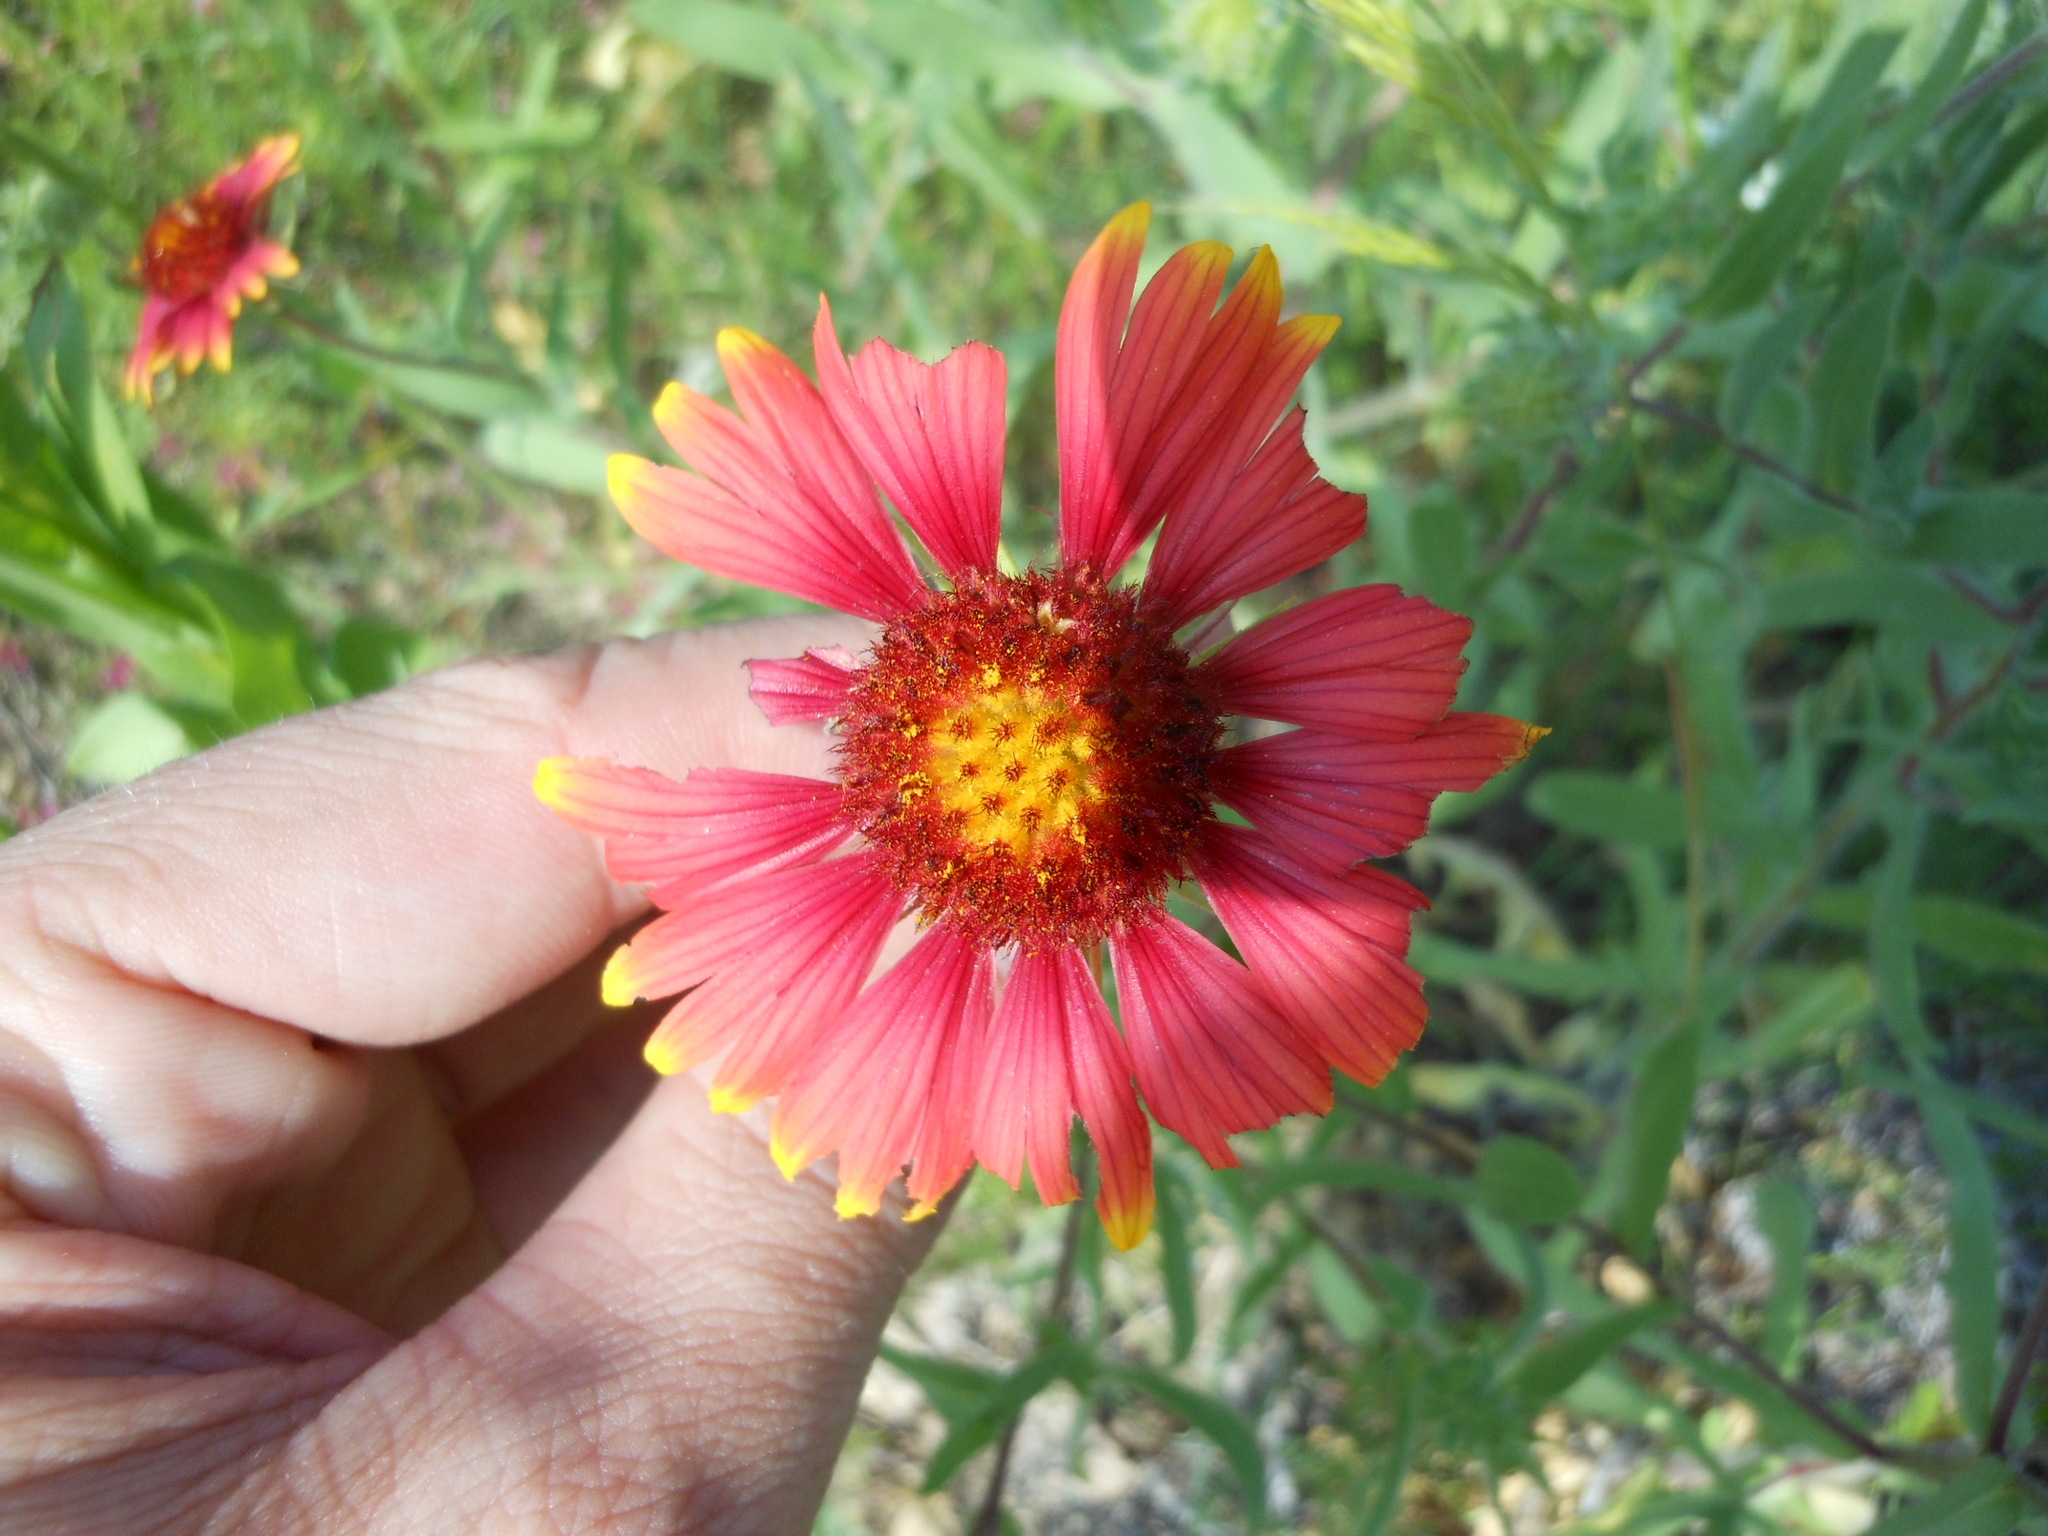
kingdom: Plantae
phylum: Tracheophyta
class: Magnoliopsida
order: Asterales
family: Asteraceae
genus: Gaillardia
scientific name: Gaillardia pulchella
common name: Firewheel
